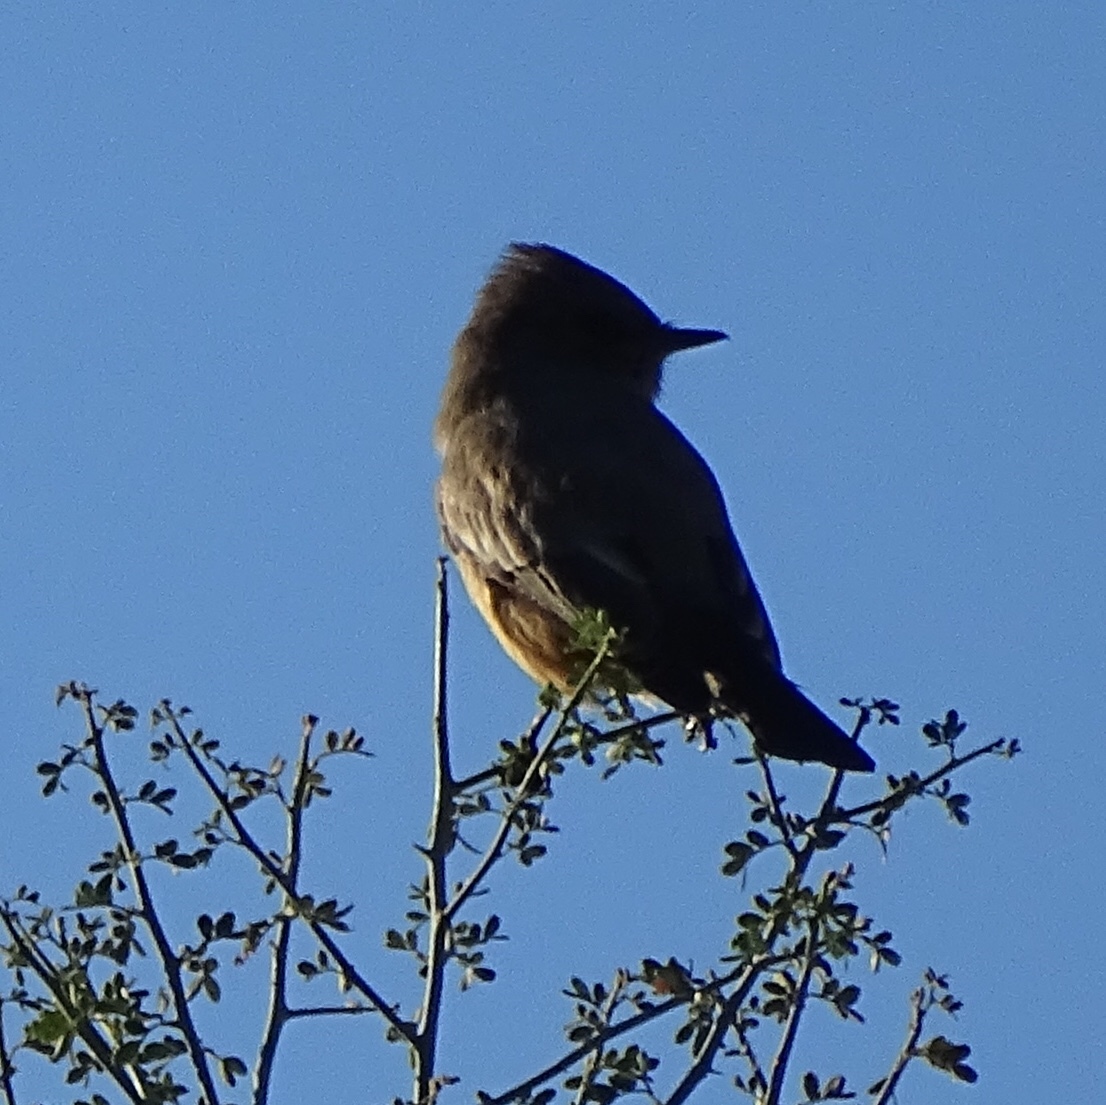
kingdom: Animalia
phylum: Chordata
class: Aves
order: Passeriformes
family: Tyrannidae
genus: Sayornis
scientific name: Sayornis saya
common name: Say's phoebe
